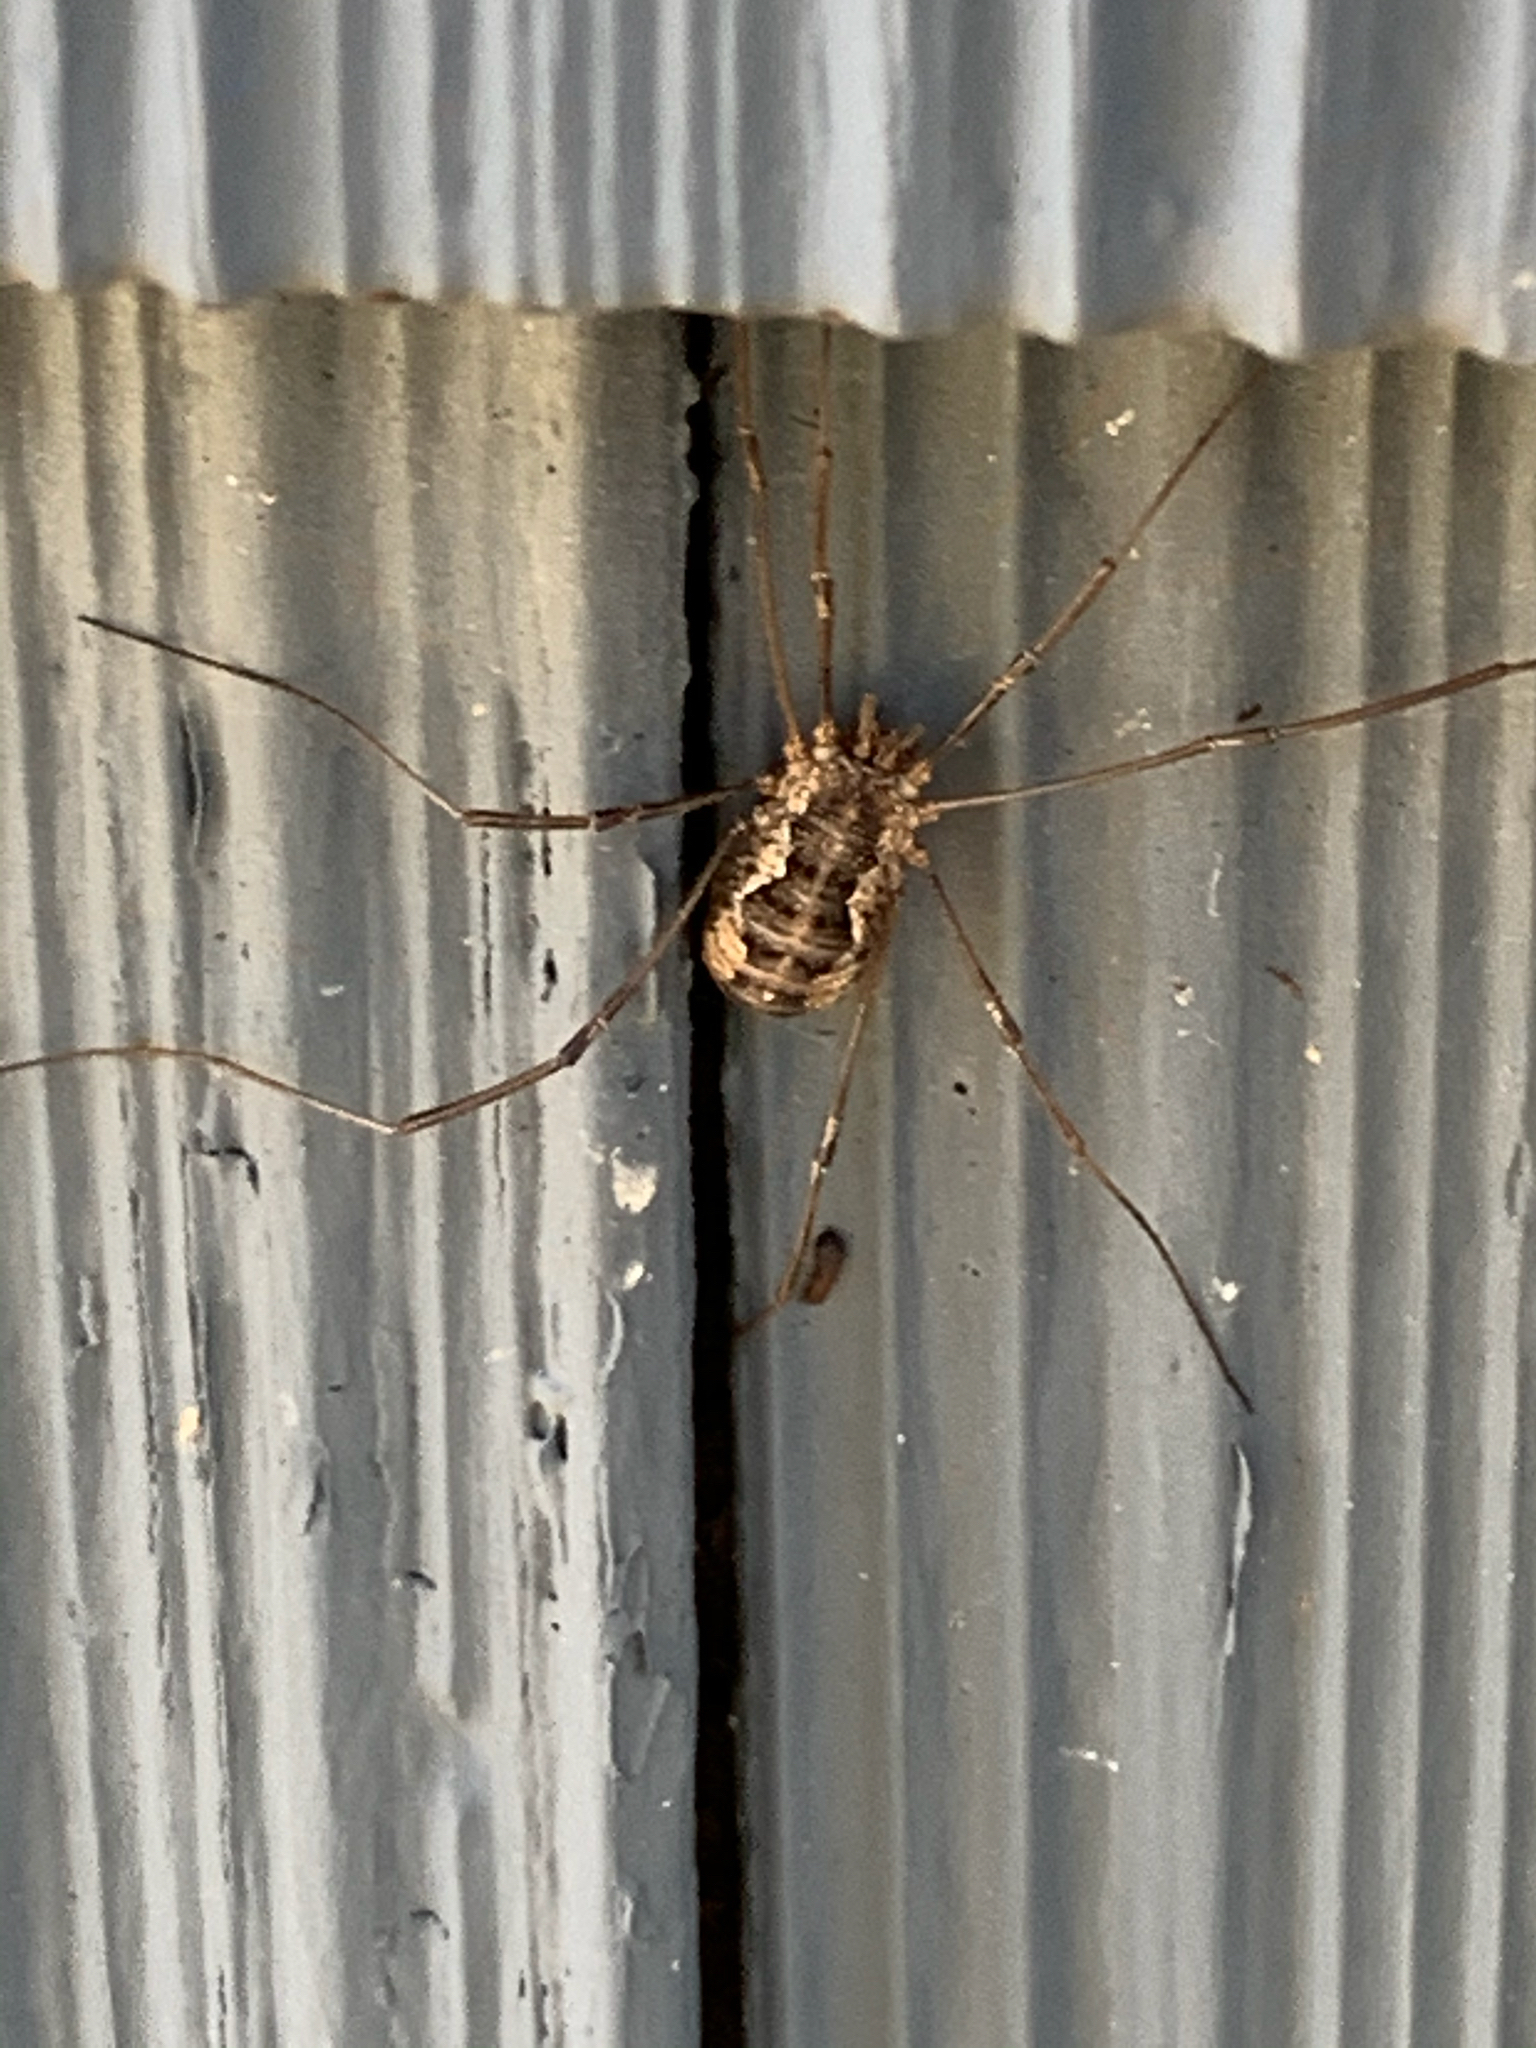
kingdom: Animalia
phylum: Arthropoda
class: Arachnida
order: Opiliones
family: Phalangiidae
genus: Phalangium
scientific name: Phalangium opilio
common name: Daddy longleg
